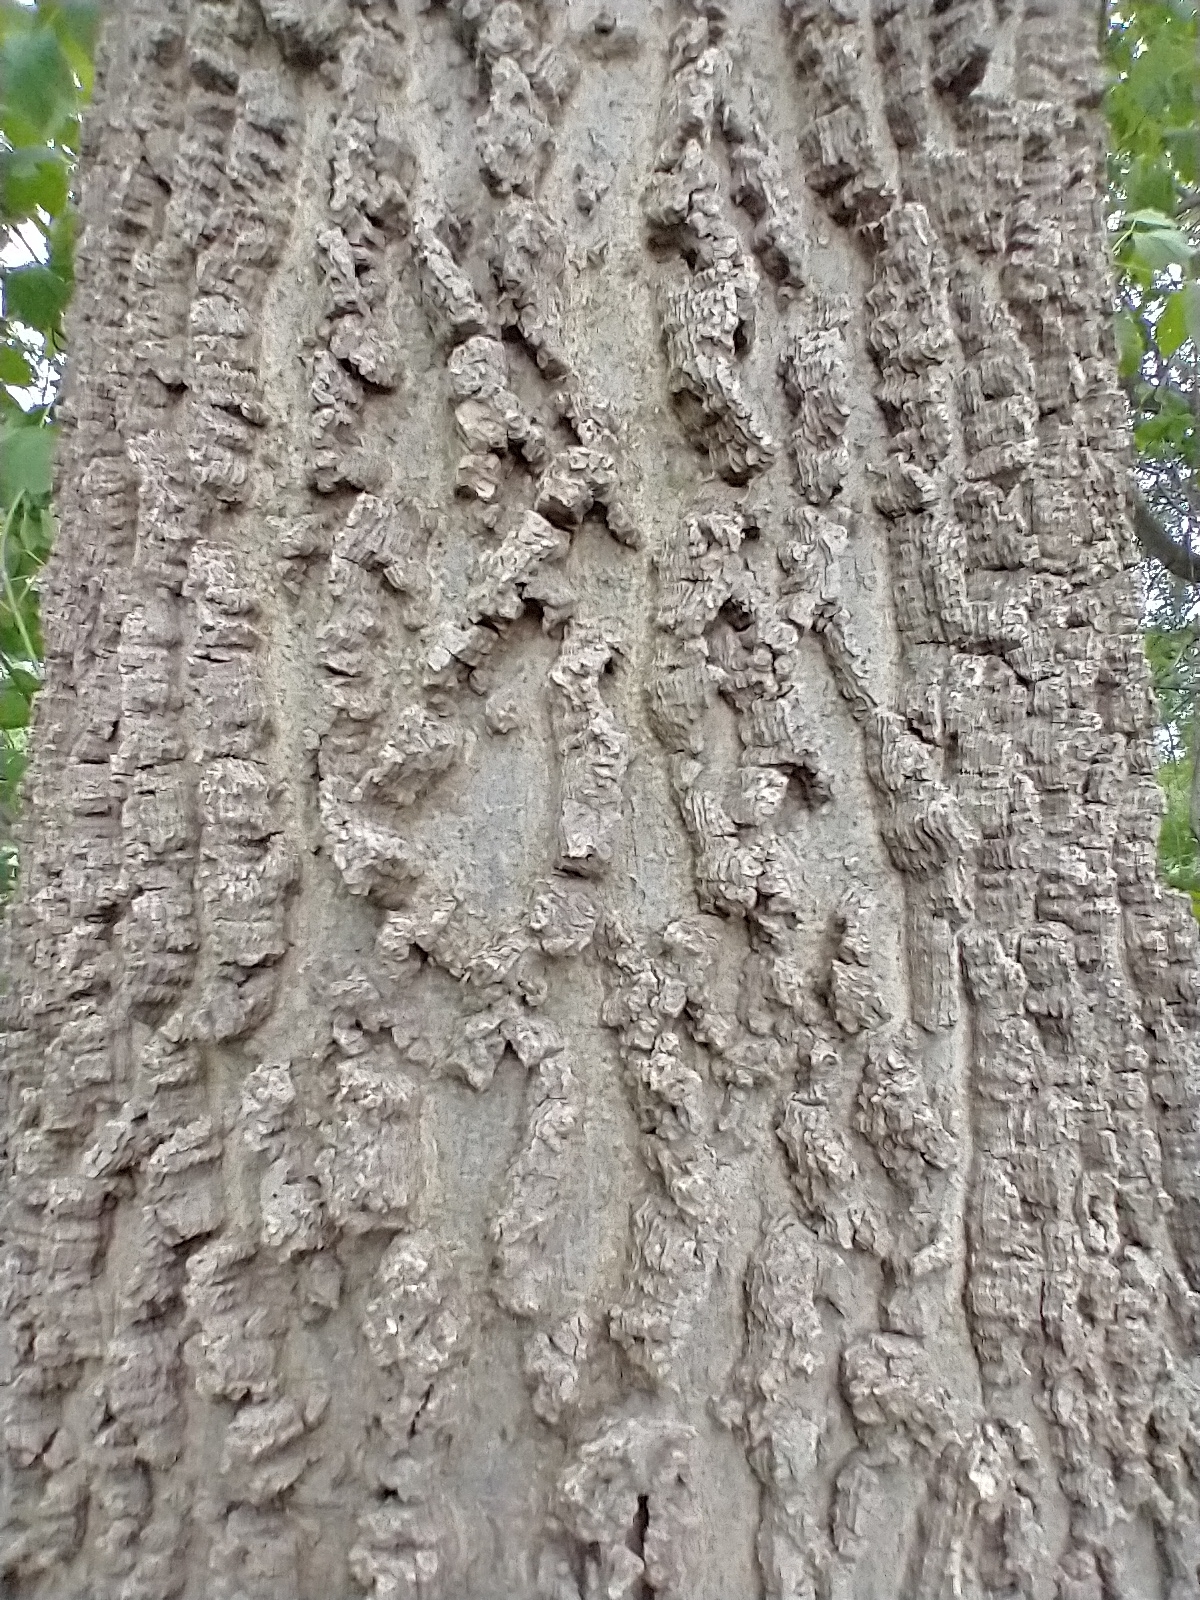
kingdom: Plantae
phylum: Tracheophyta
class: Magnoliopsida
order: Rosales
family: Cannabaceae
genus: Celtis
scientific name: Celtis occidentalis
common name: Common hackberry
